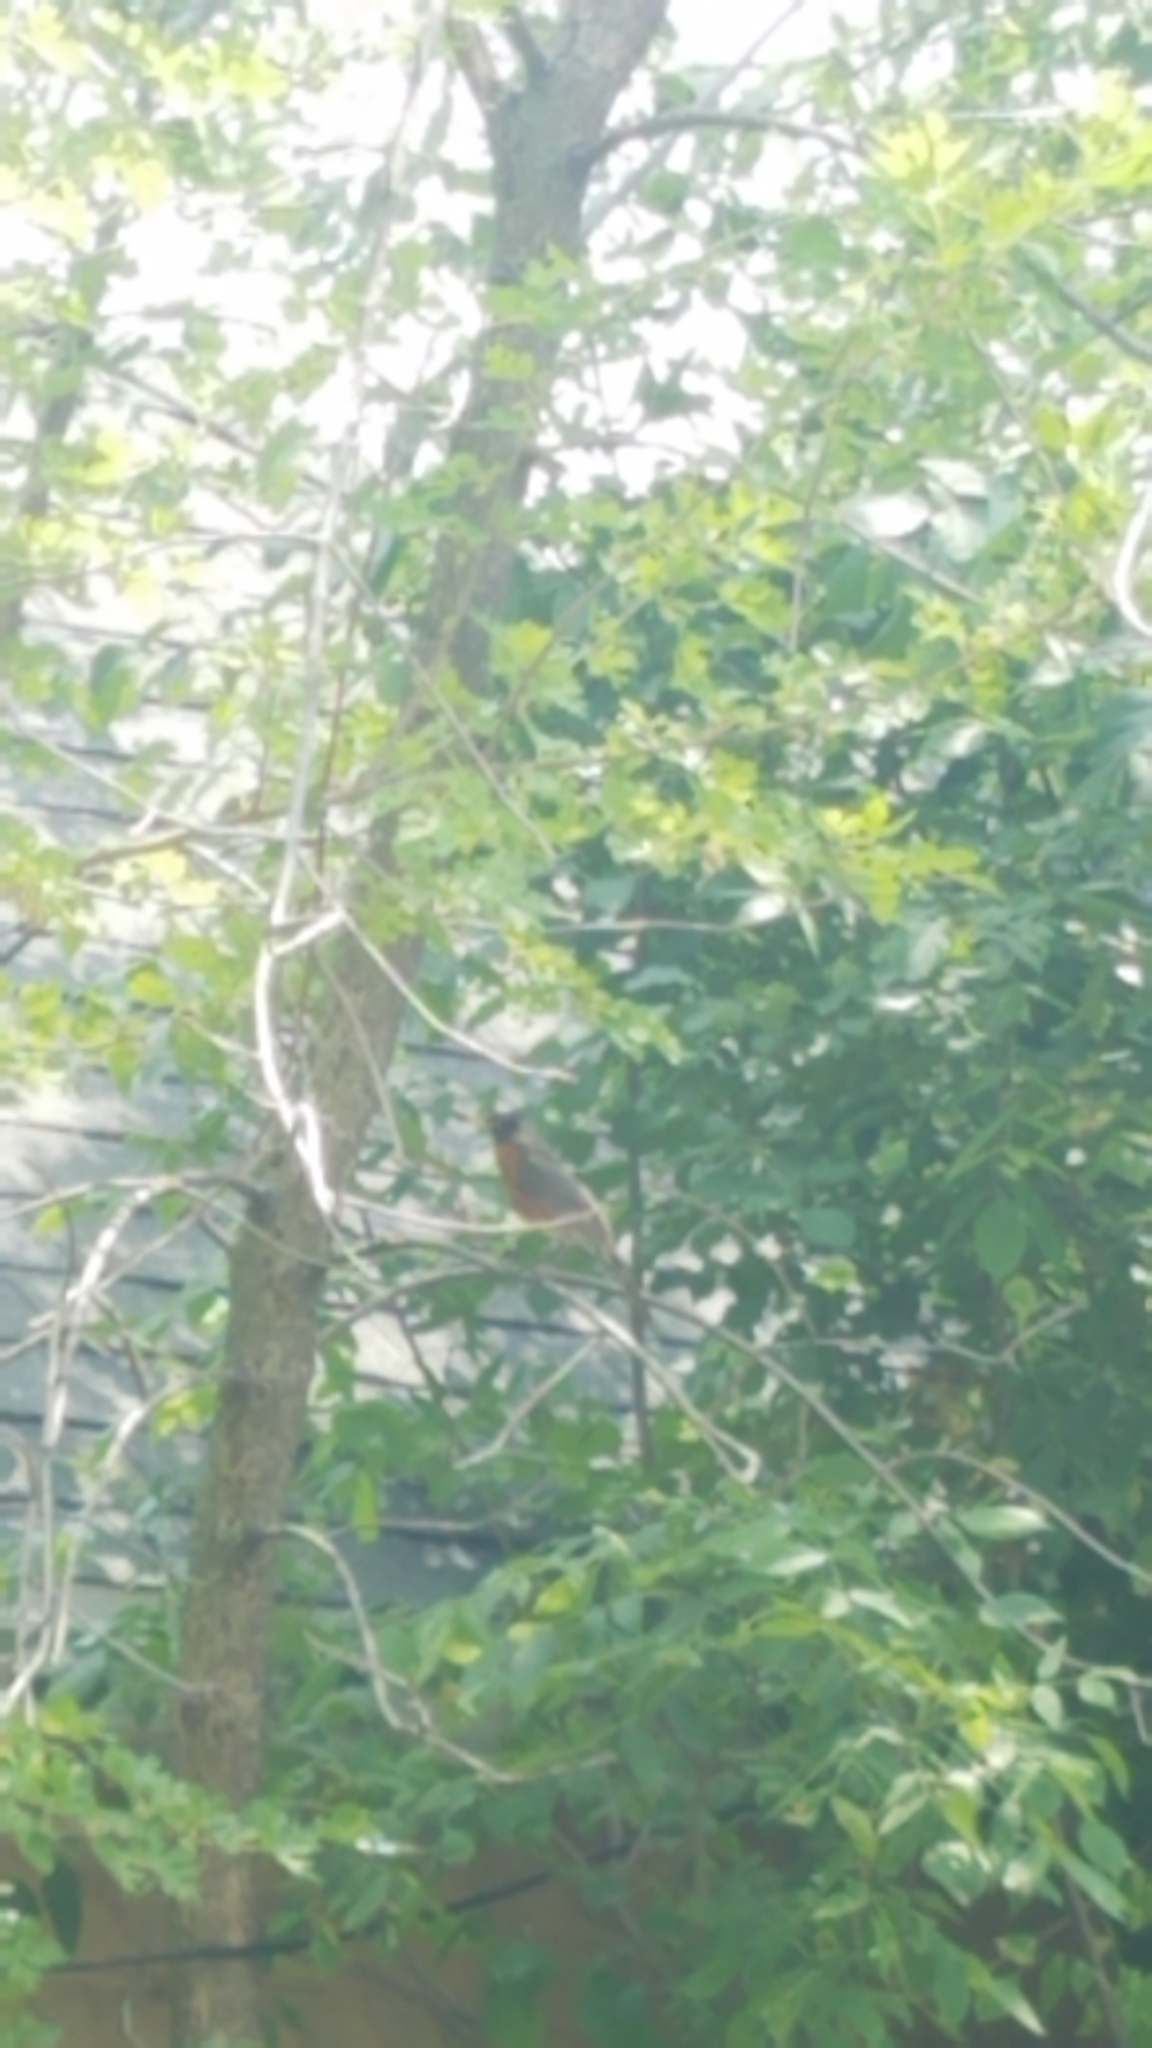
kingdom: Animalia
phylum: Chordata
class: Aves
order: Passeriformes
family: Turdidae
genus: Turdus
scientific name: Turdus migratorius
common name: American robin
